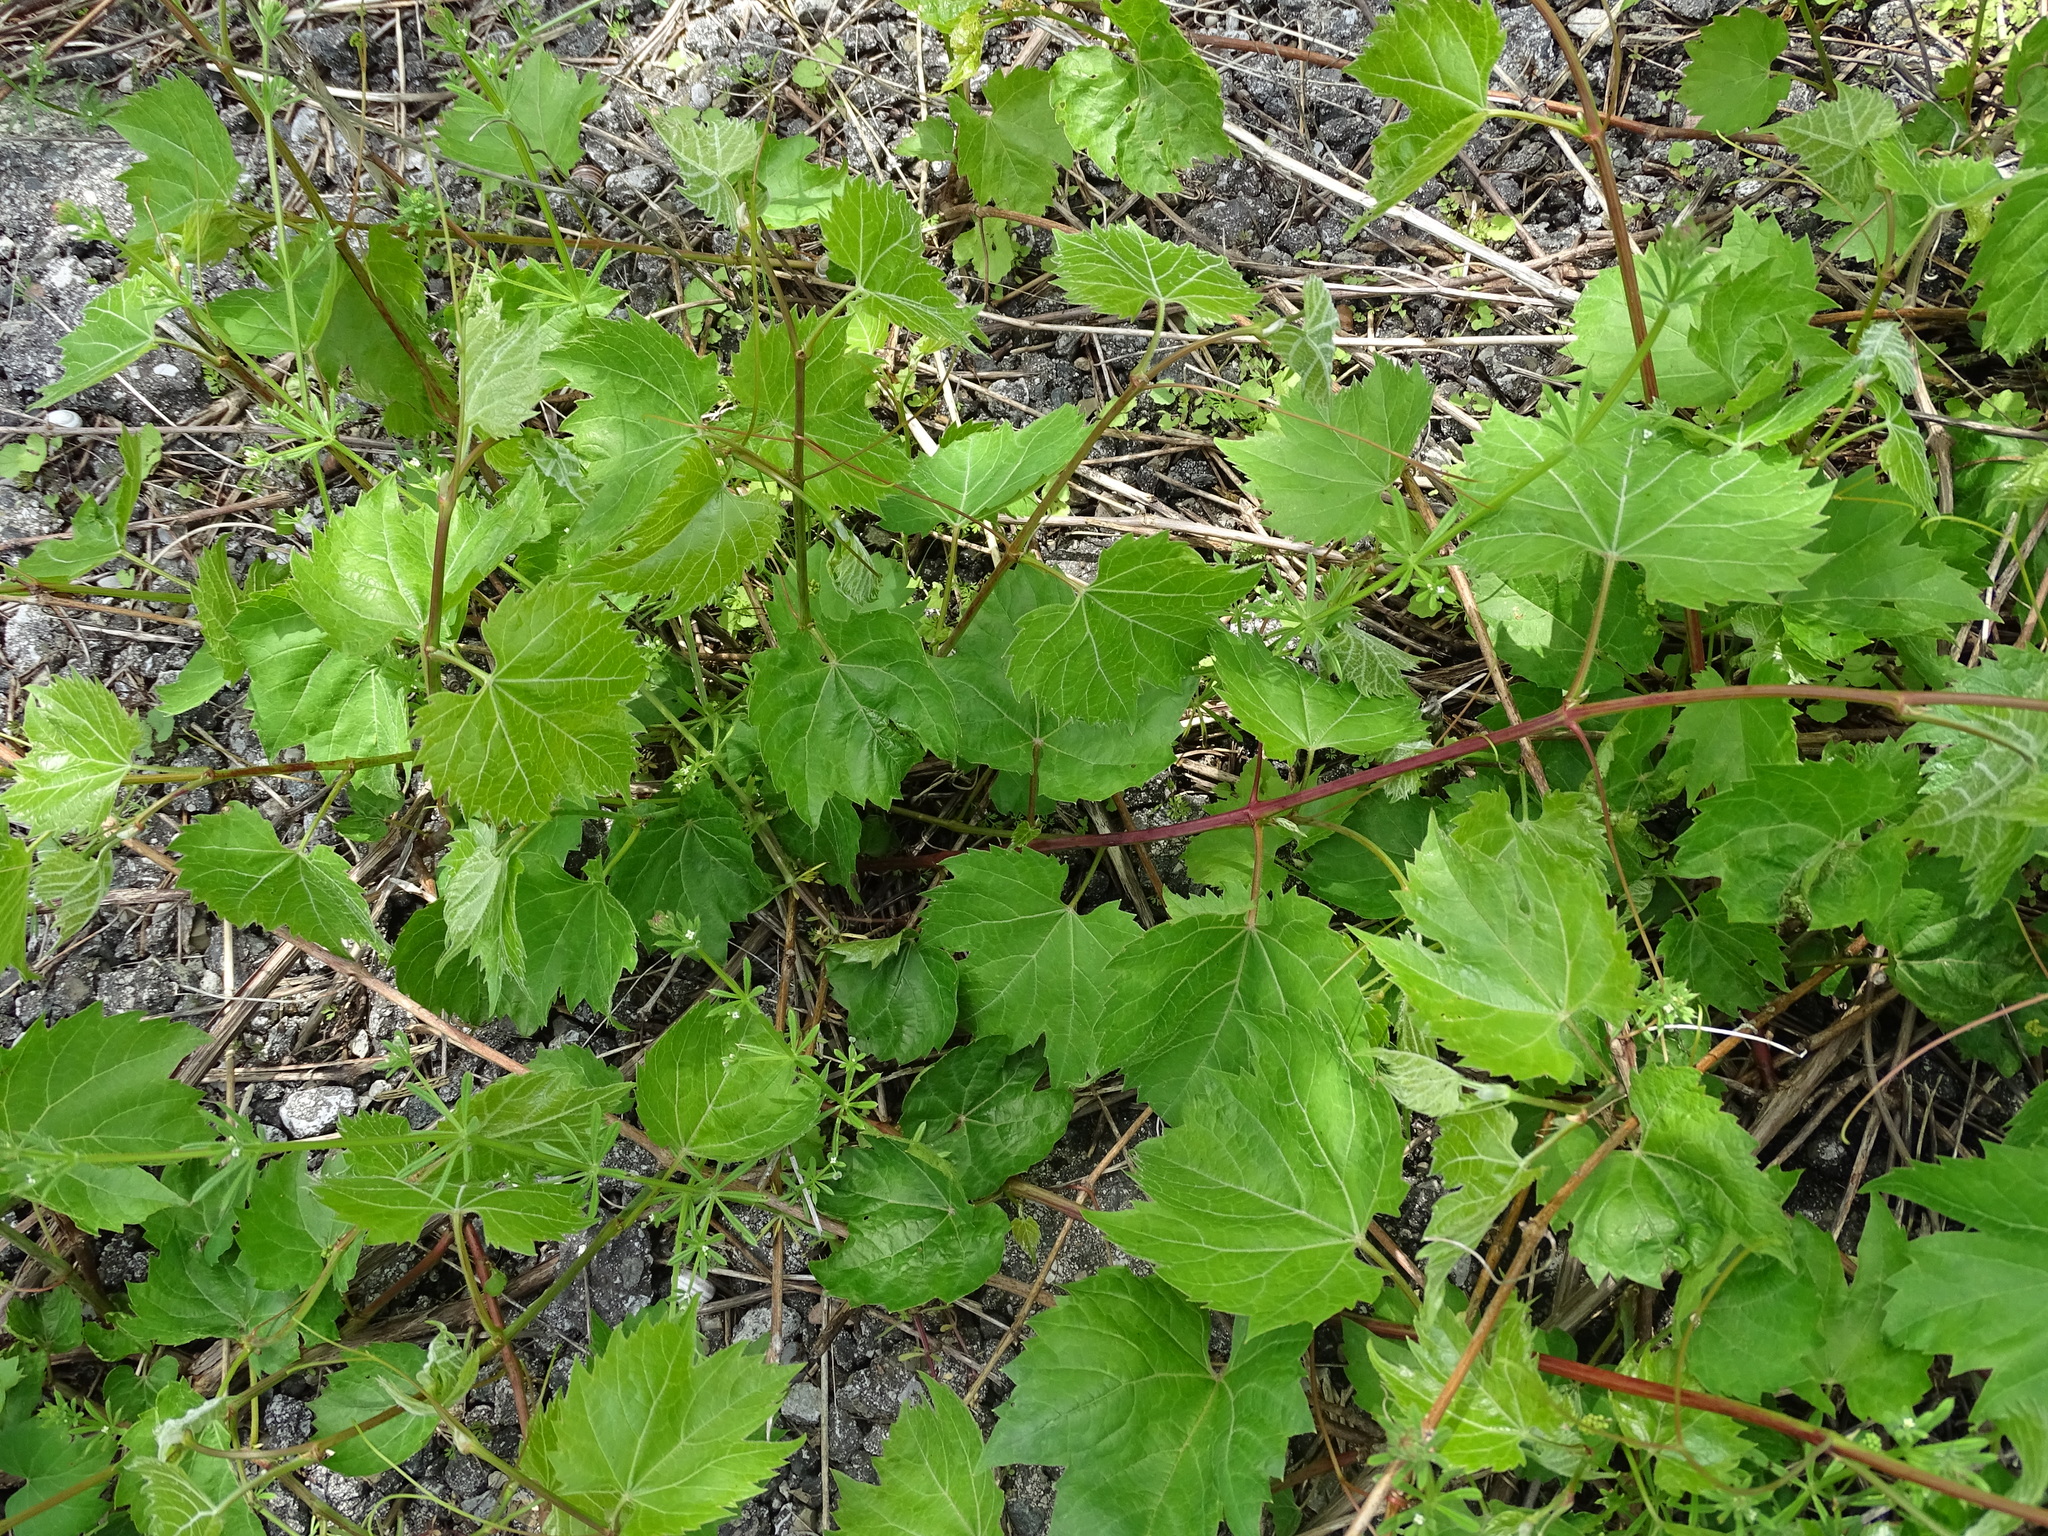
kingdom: Plantae
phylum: Tracheophyta
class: Magnoliopsida
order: Vitales
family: Vitaceae
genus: Vitis
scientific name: Vitis riparia
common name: Frost grape
